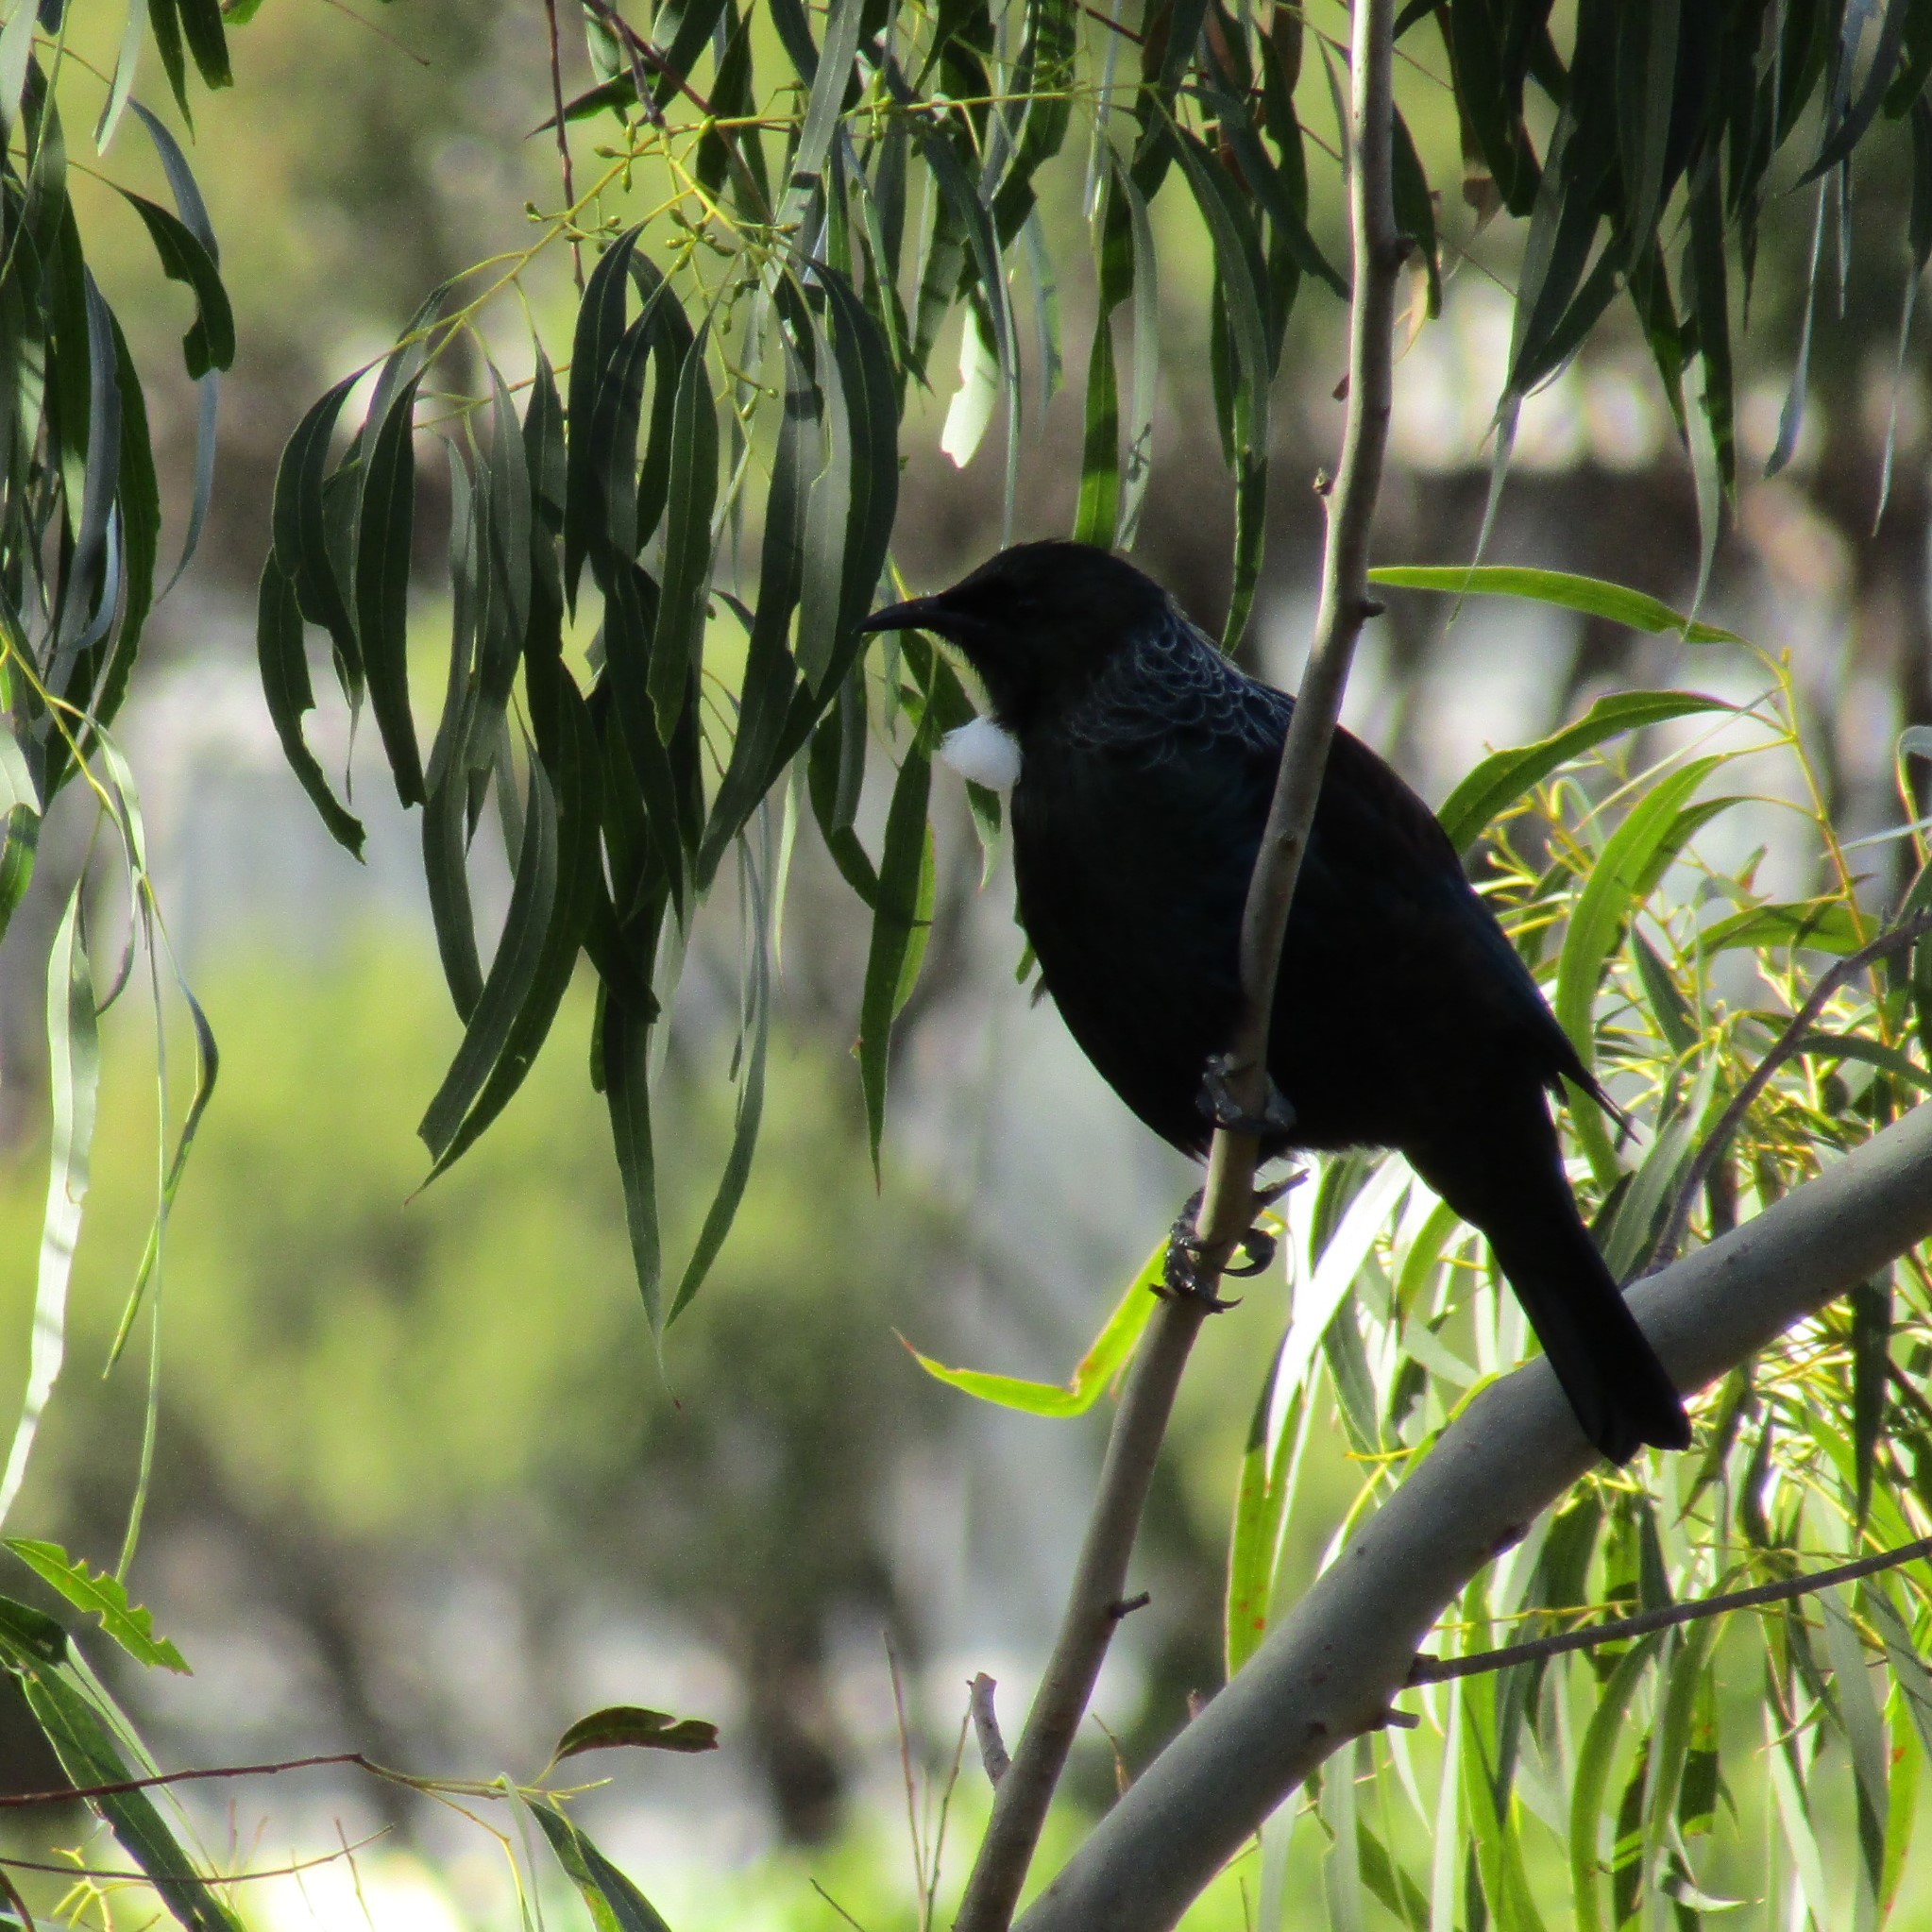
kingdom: Animalia
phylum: Chordata
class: Aves
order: Passeriformes
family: Meliphagidae
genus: Prosthemadera
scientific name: Prosthemadera novaeseelandiae
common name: Tui
